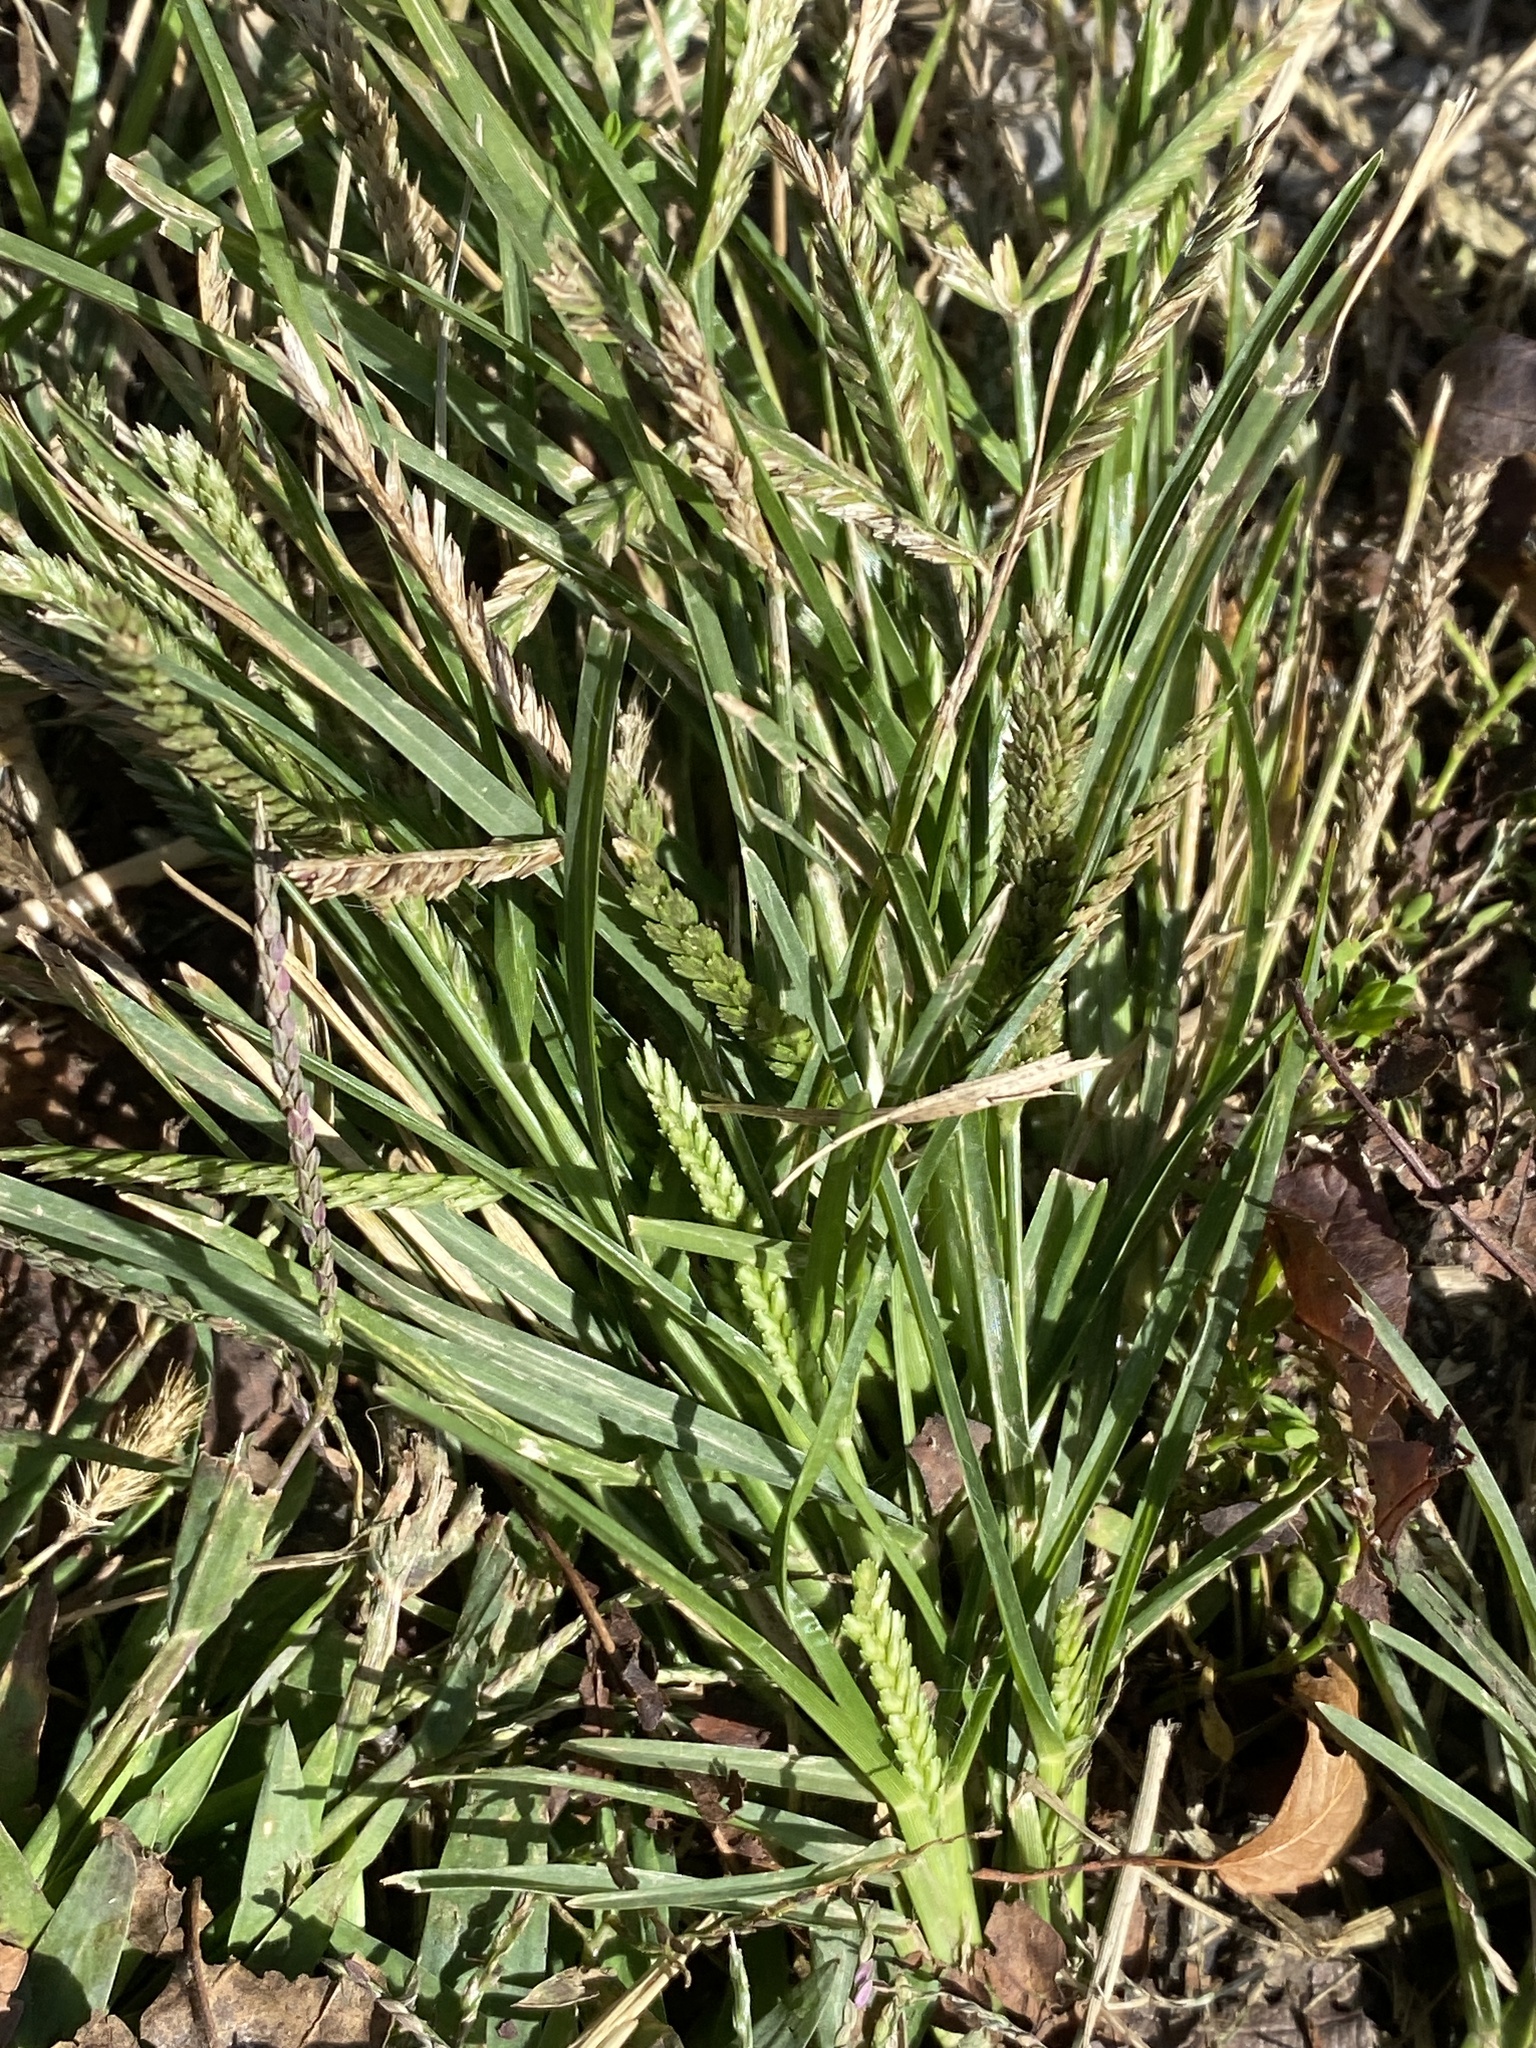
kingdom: Plantae
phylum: Tracheophyta
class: Liliopsida
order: Poales
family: Poaceae
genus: Eleusine
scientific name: Eleusine indica
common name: Yard-grass
